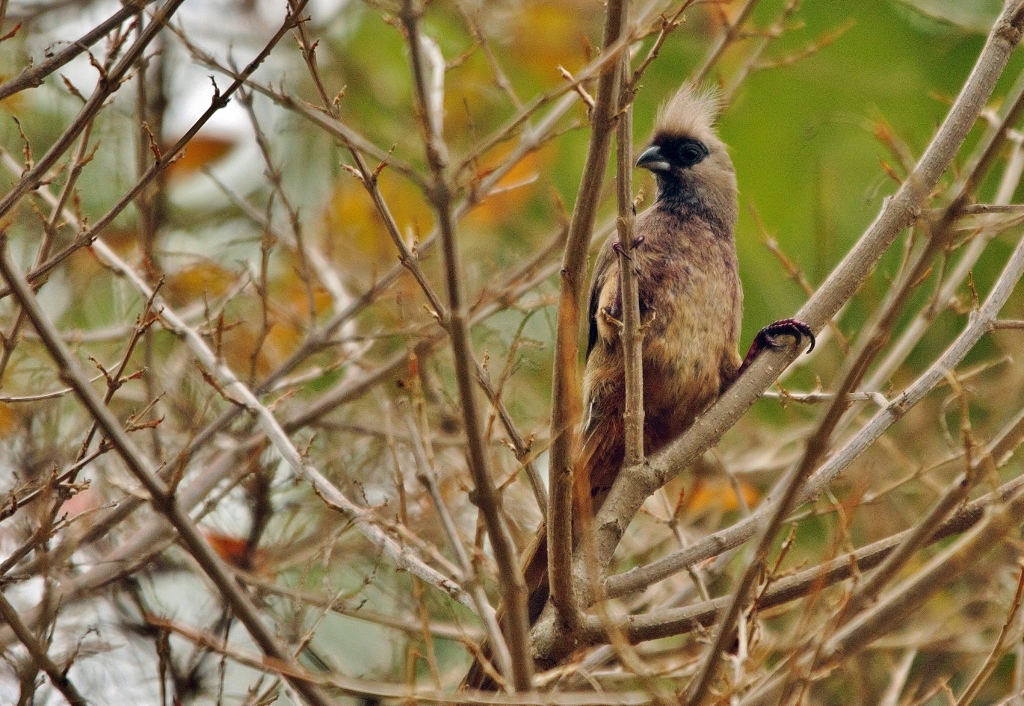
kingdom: Animalia
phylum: Chordata
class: Aves
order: Coliiformes
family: Coliidae
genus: Colius
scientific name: Colius striatus
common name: Speckled mousebird
